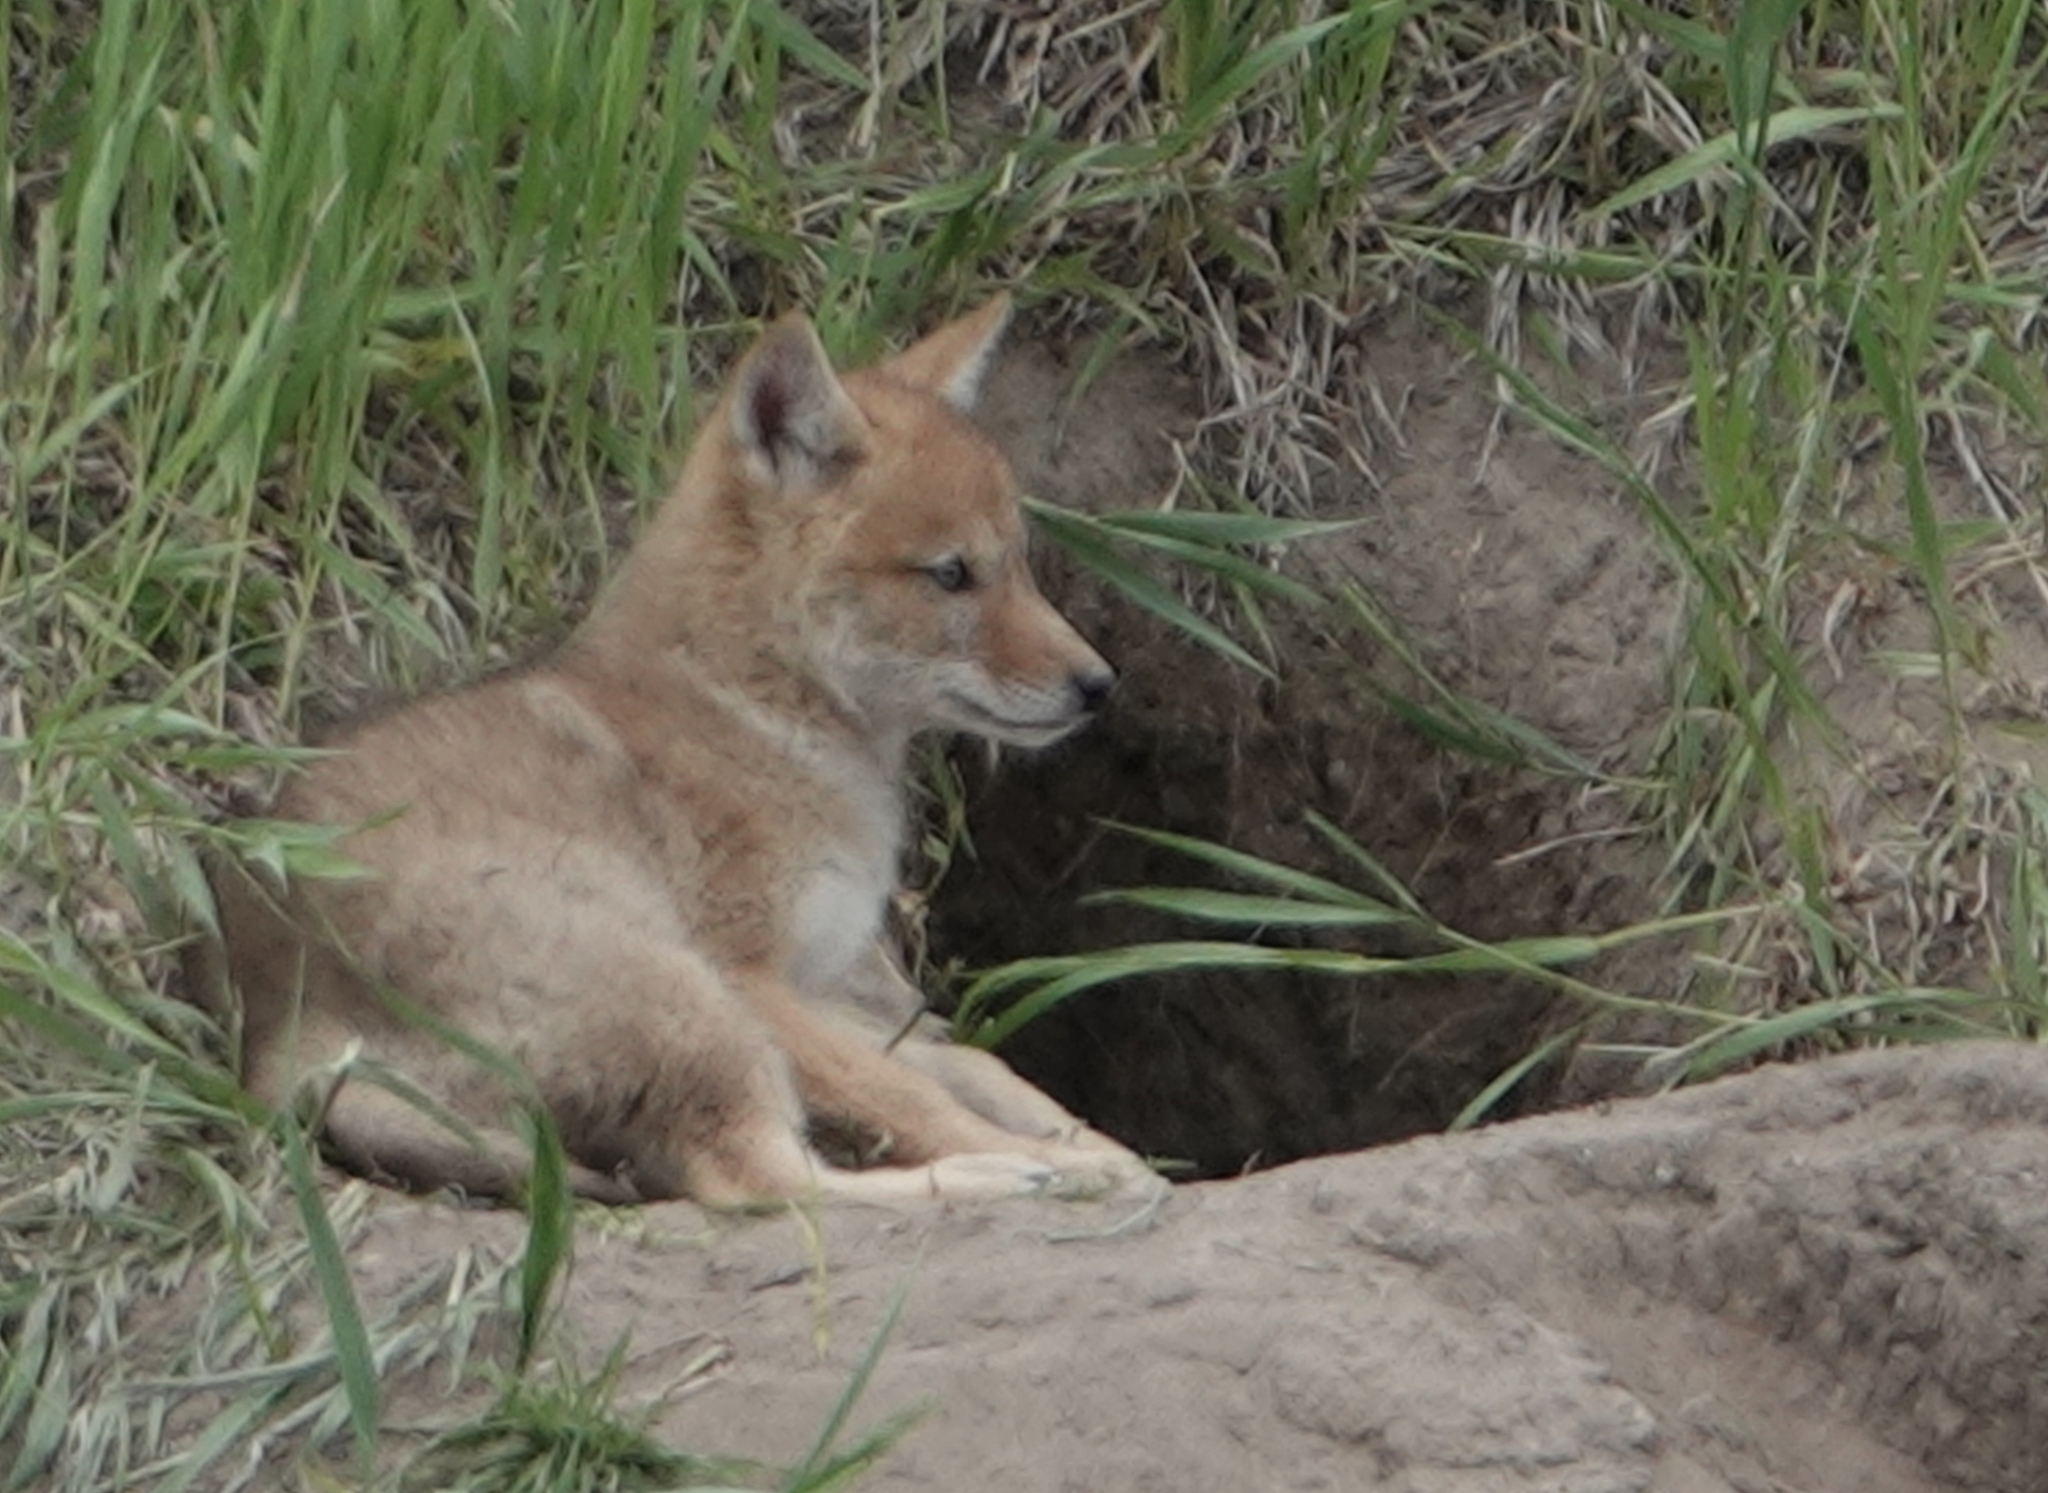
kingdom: Animalia
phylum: Chordata
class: Mammalia
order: Carnivora
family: Canidae
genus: Canis
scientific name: Canis latrans
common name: Coyote
